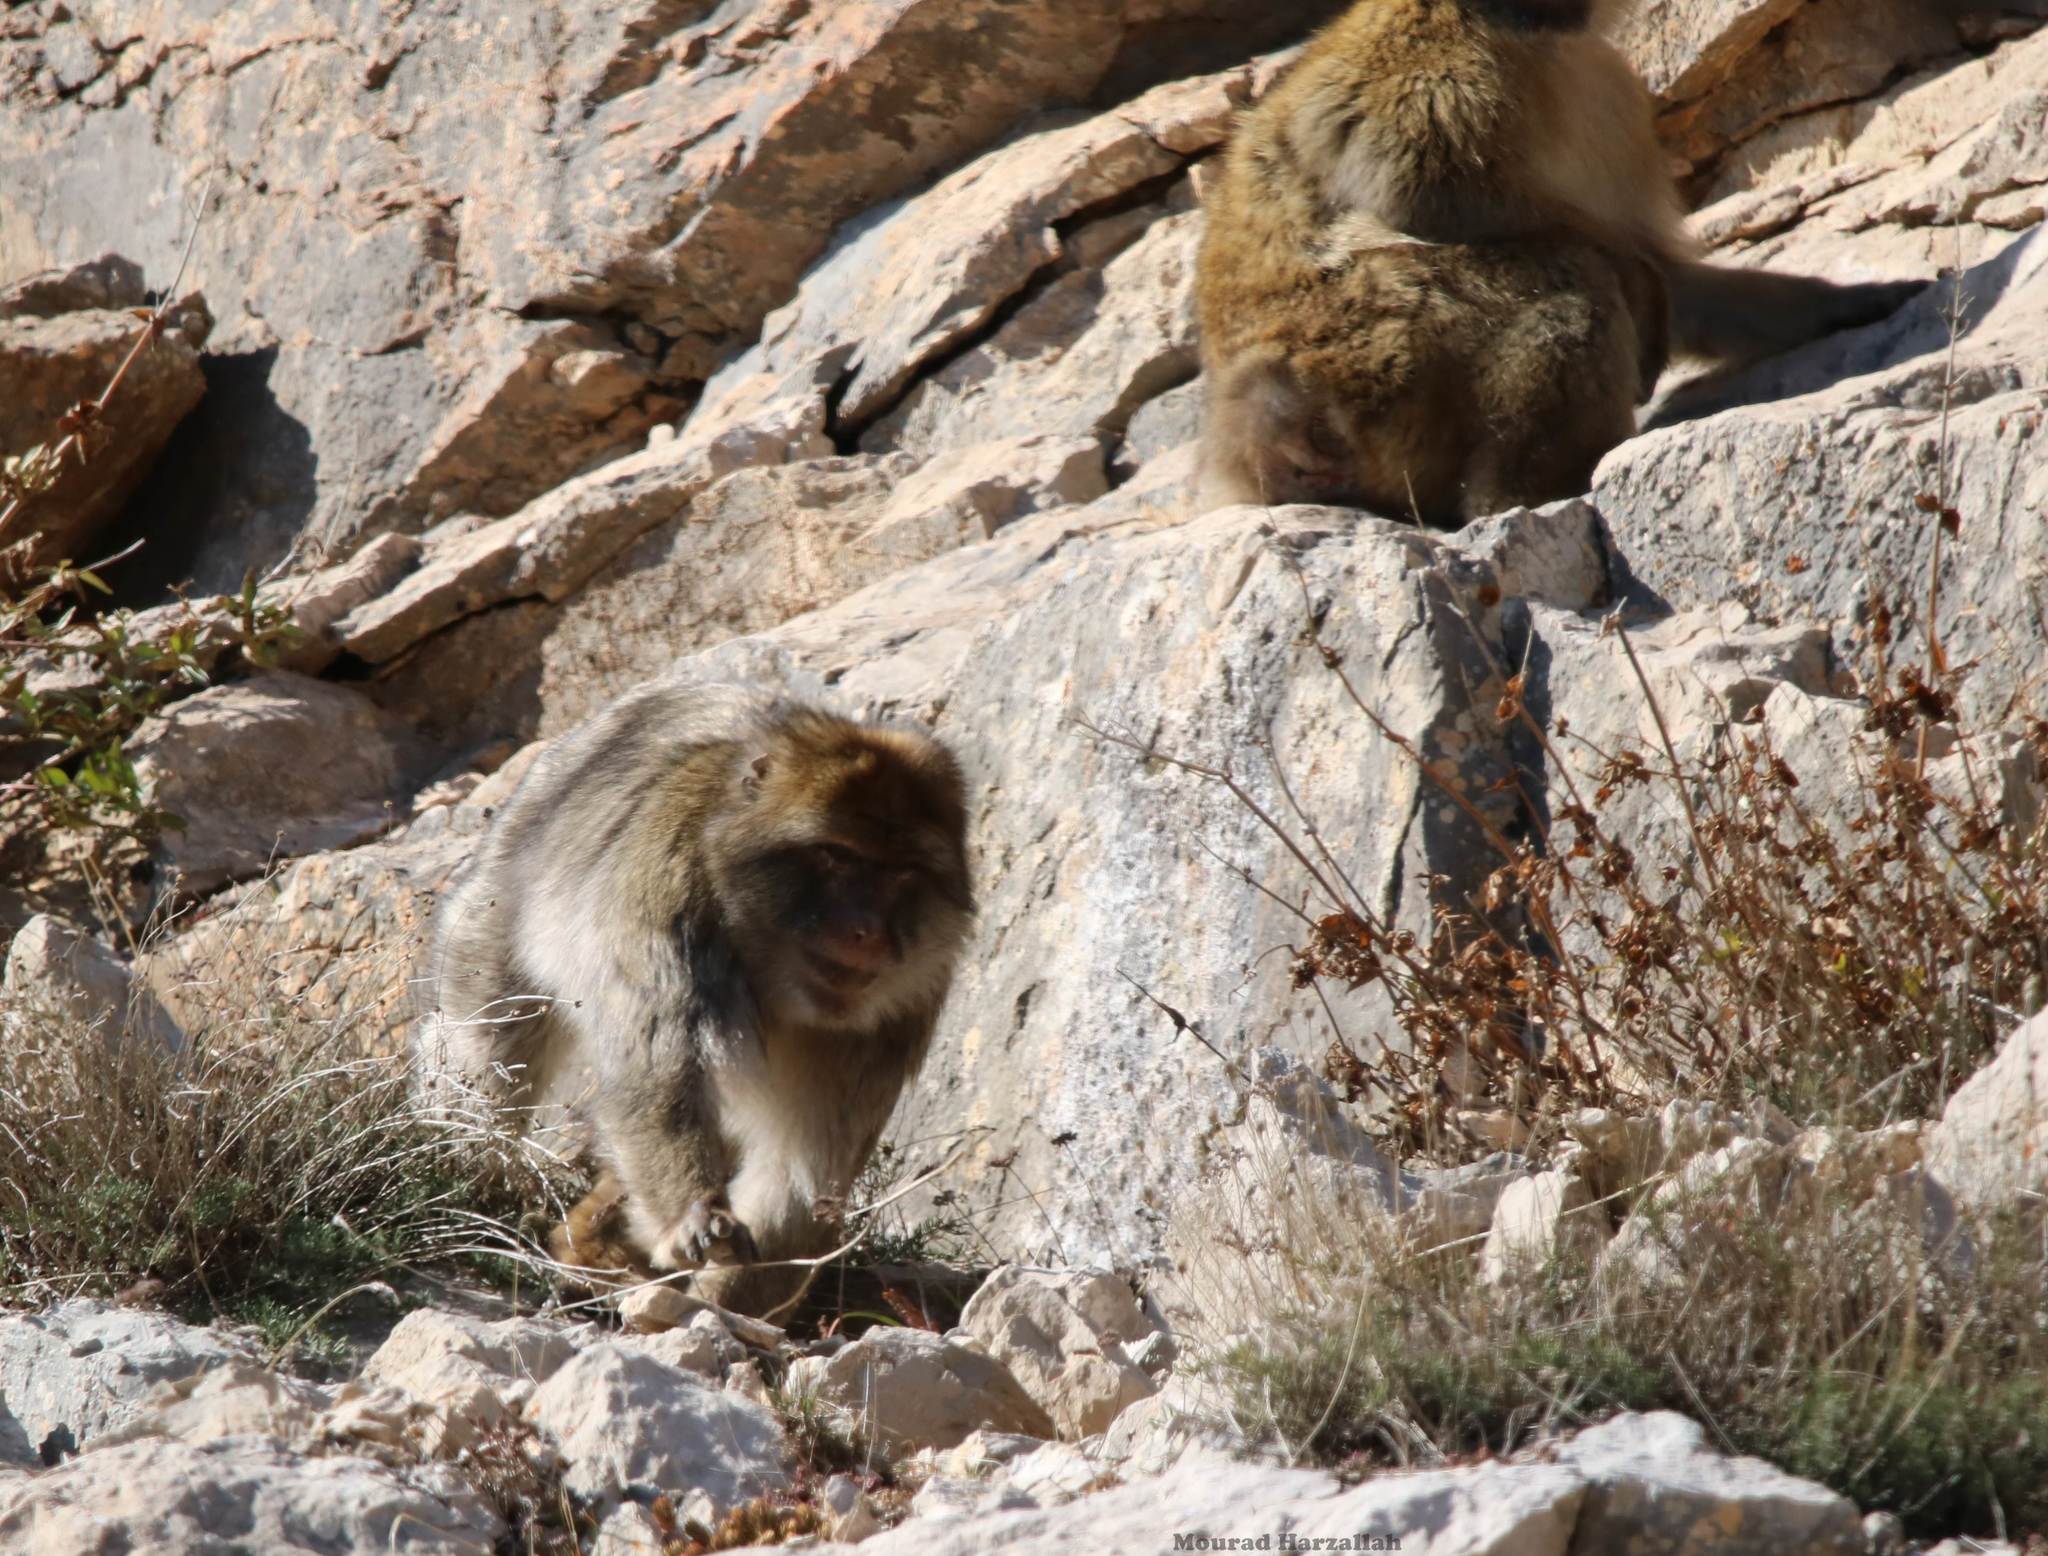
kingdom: Animalia
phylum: Chordata
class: Mammalia
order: Primates
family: Cercopithecidae
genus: Macaca
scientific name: Macaca sylvanus
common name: Barbary macaque
